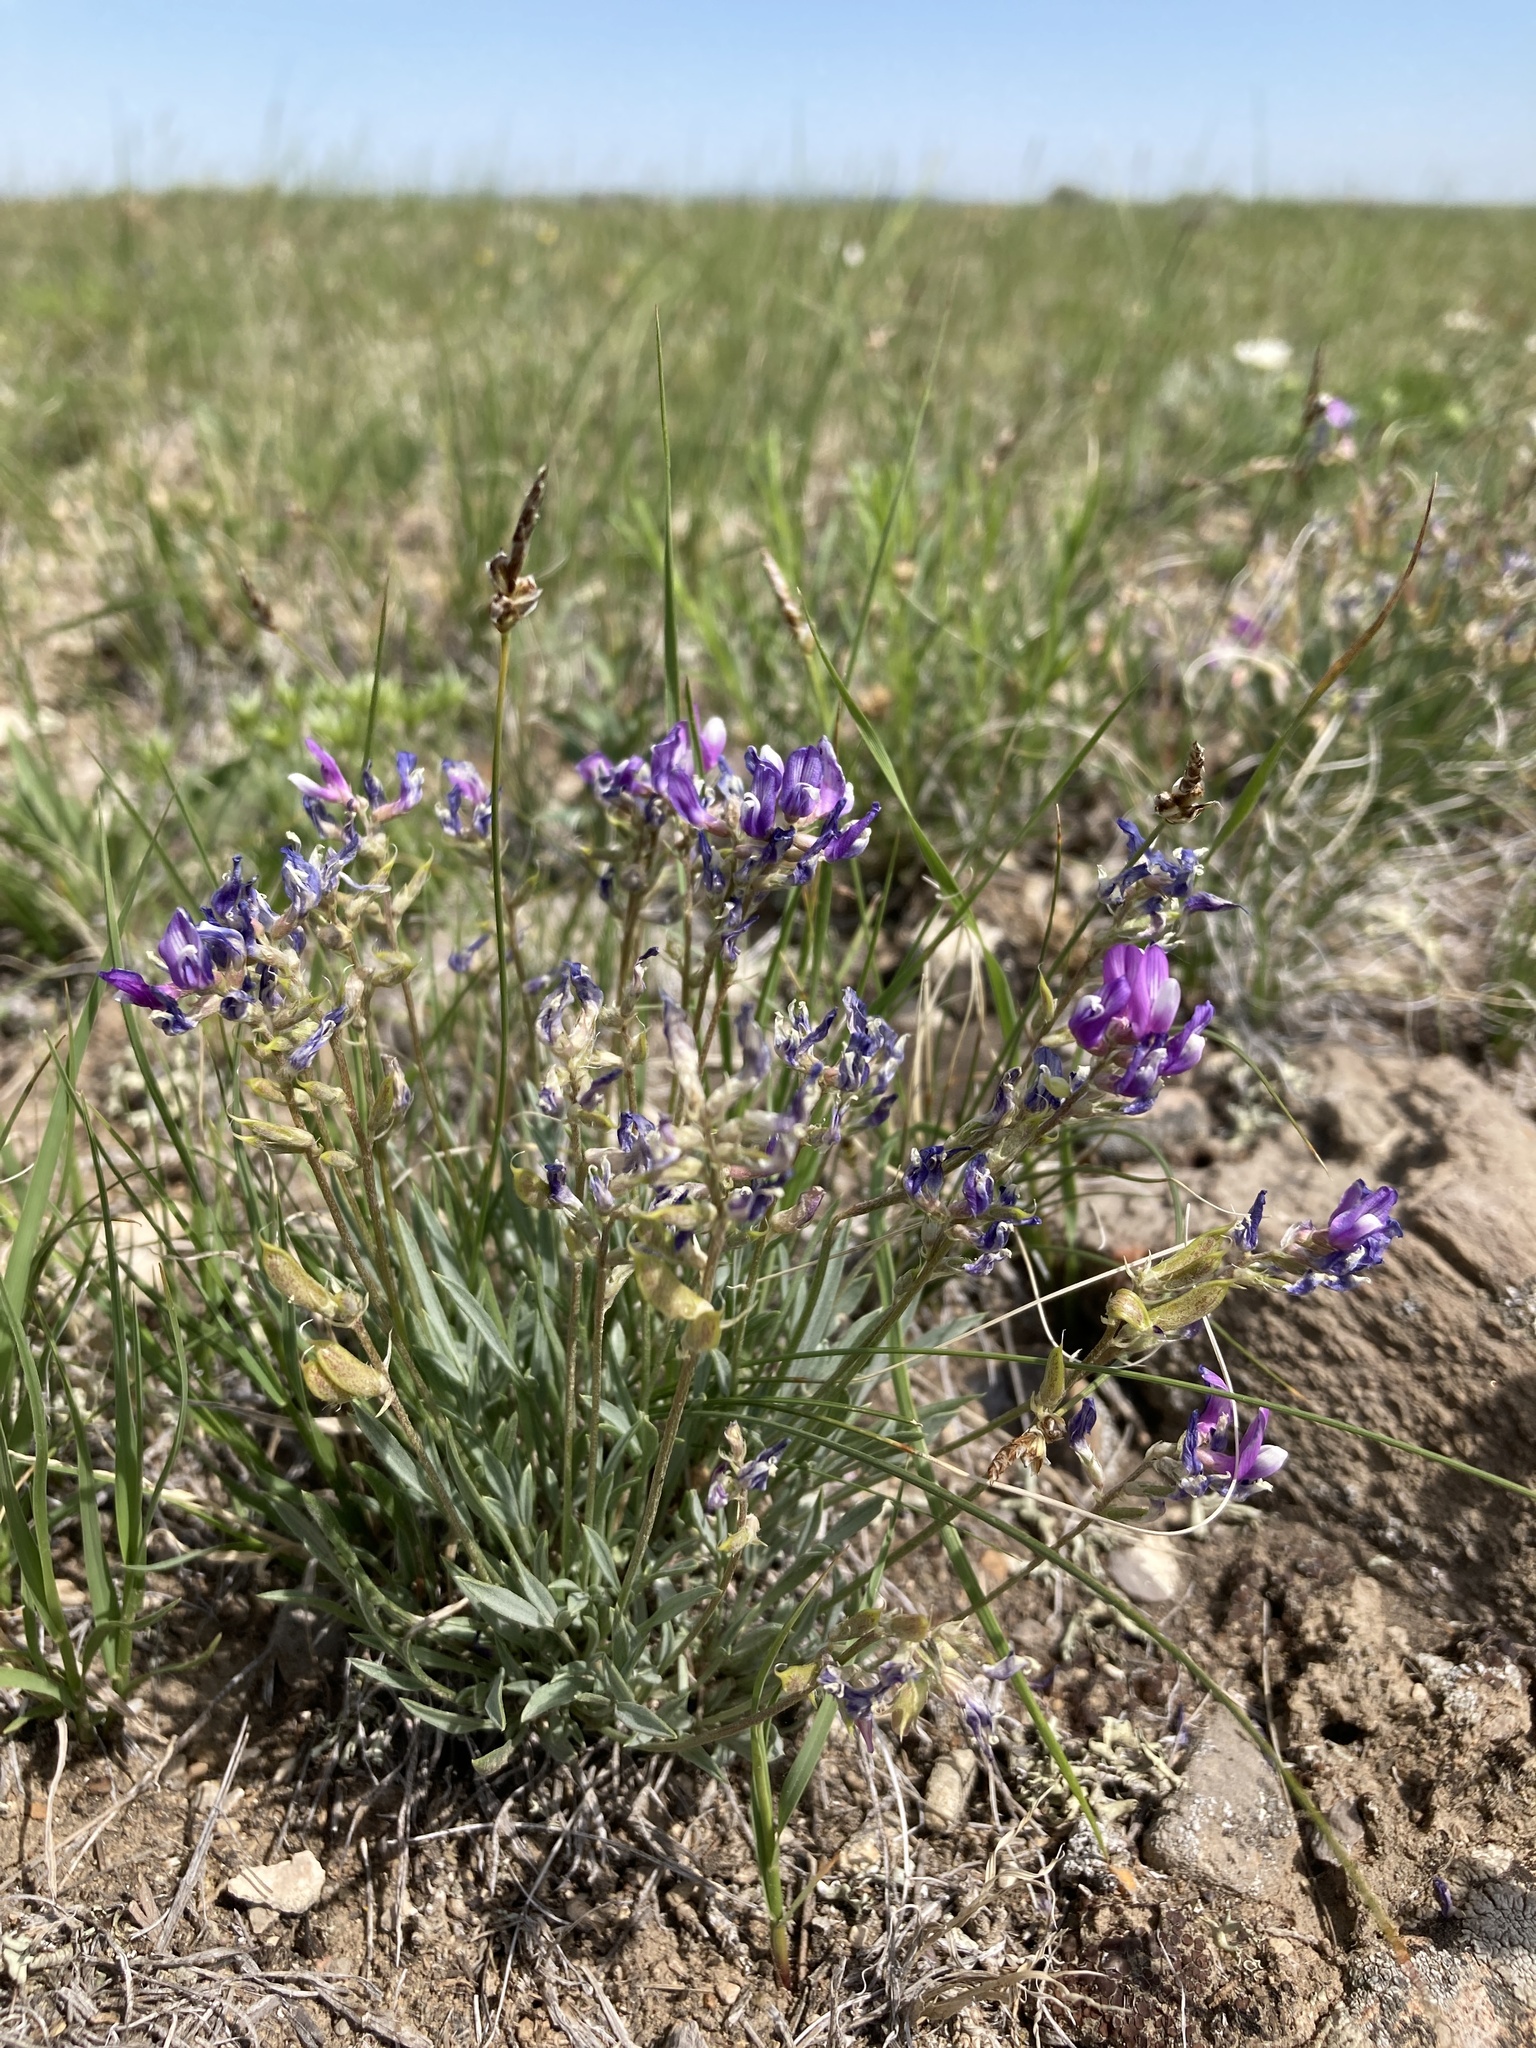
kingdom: Plantae
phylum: Tracheophyta
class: Magnoliopsida
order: Fabales
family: Fabaceae
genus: Astragalus
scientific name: Astragalus spatulatus
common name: Draba milk-vetch
